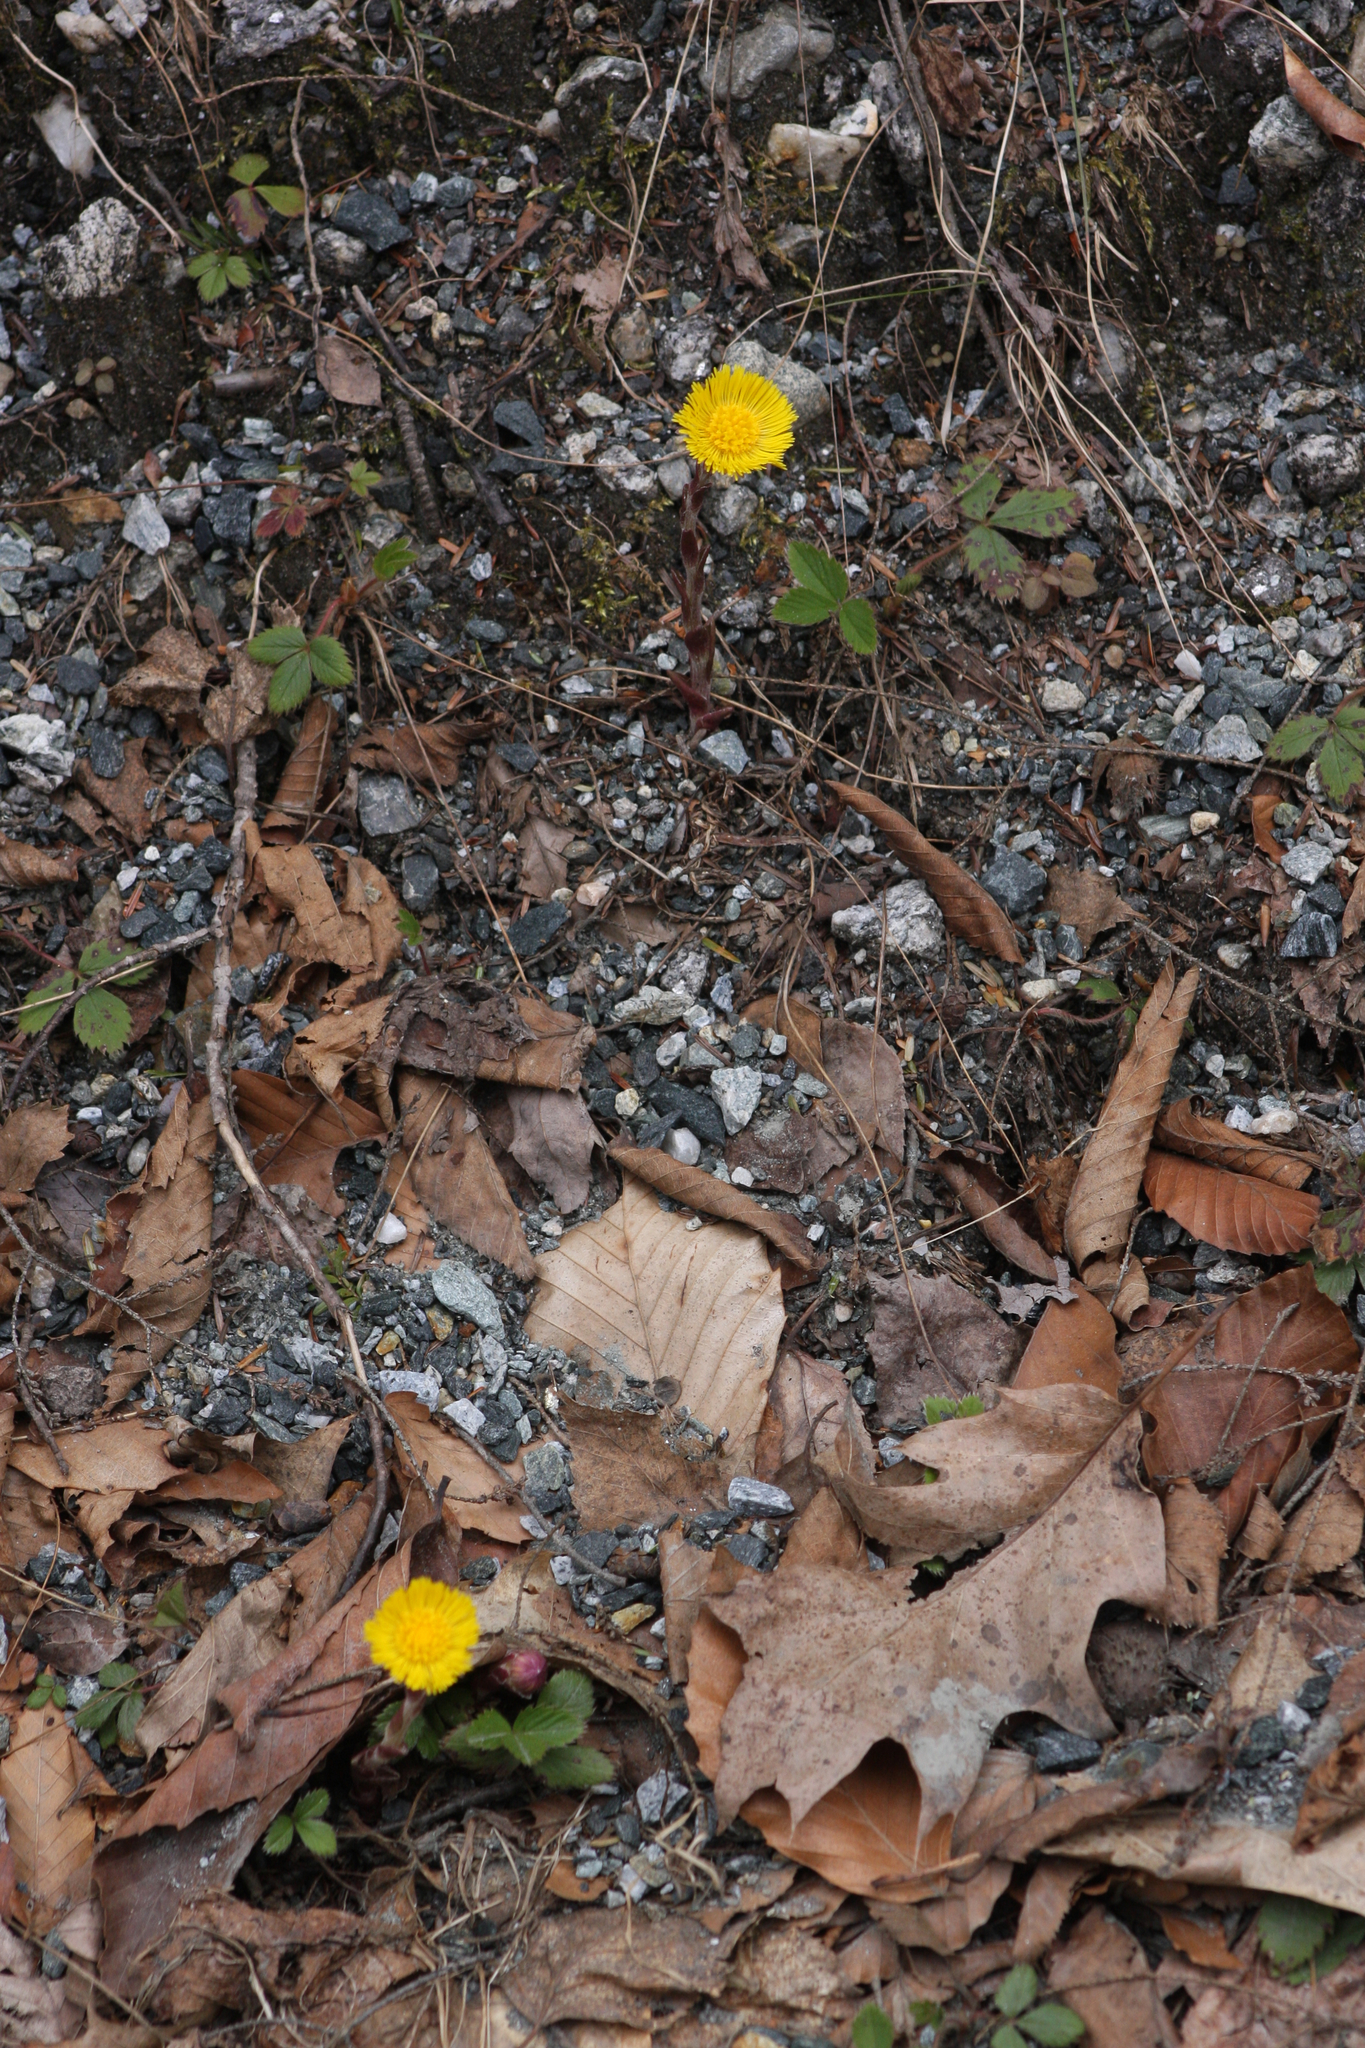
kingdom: Plantae
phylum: Tracheophyta
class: Magnoliopsida
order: Asterales
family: Asteraceae
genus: Tussilago
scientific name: Tussilago farfara
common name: Coltsfoot
